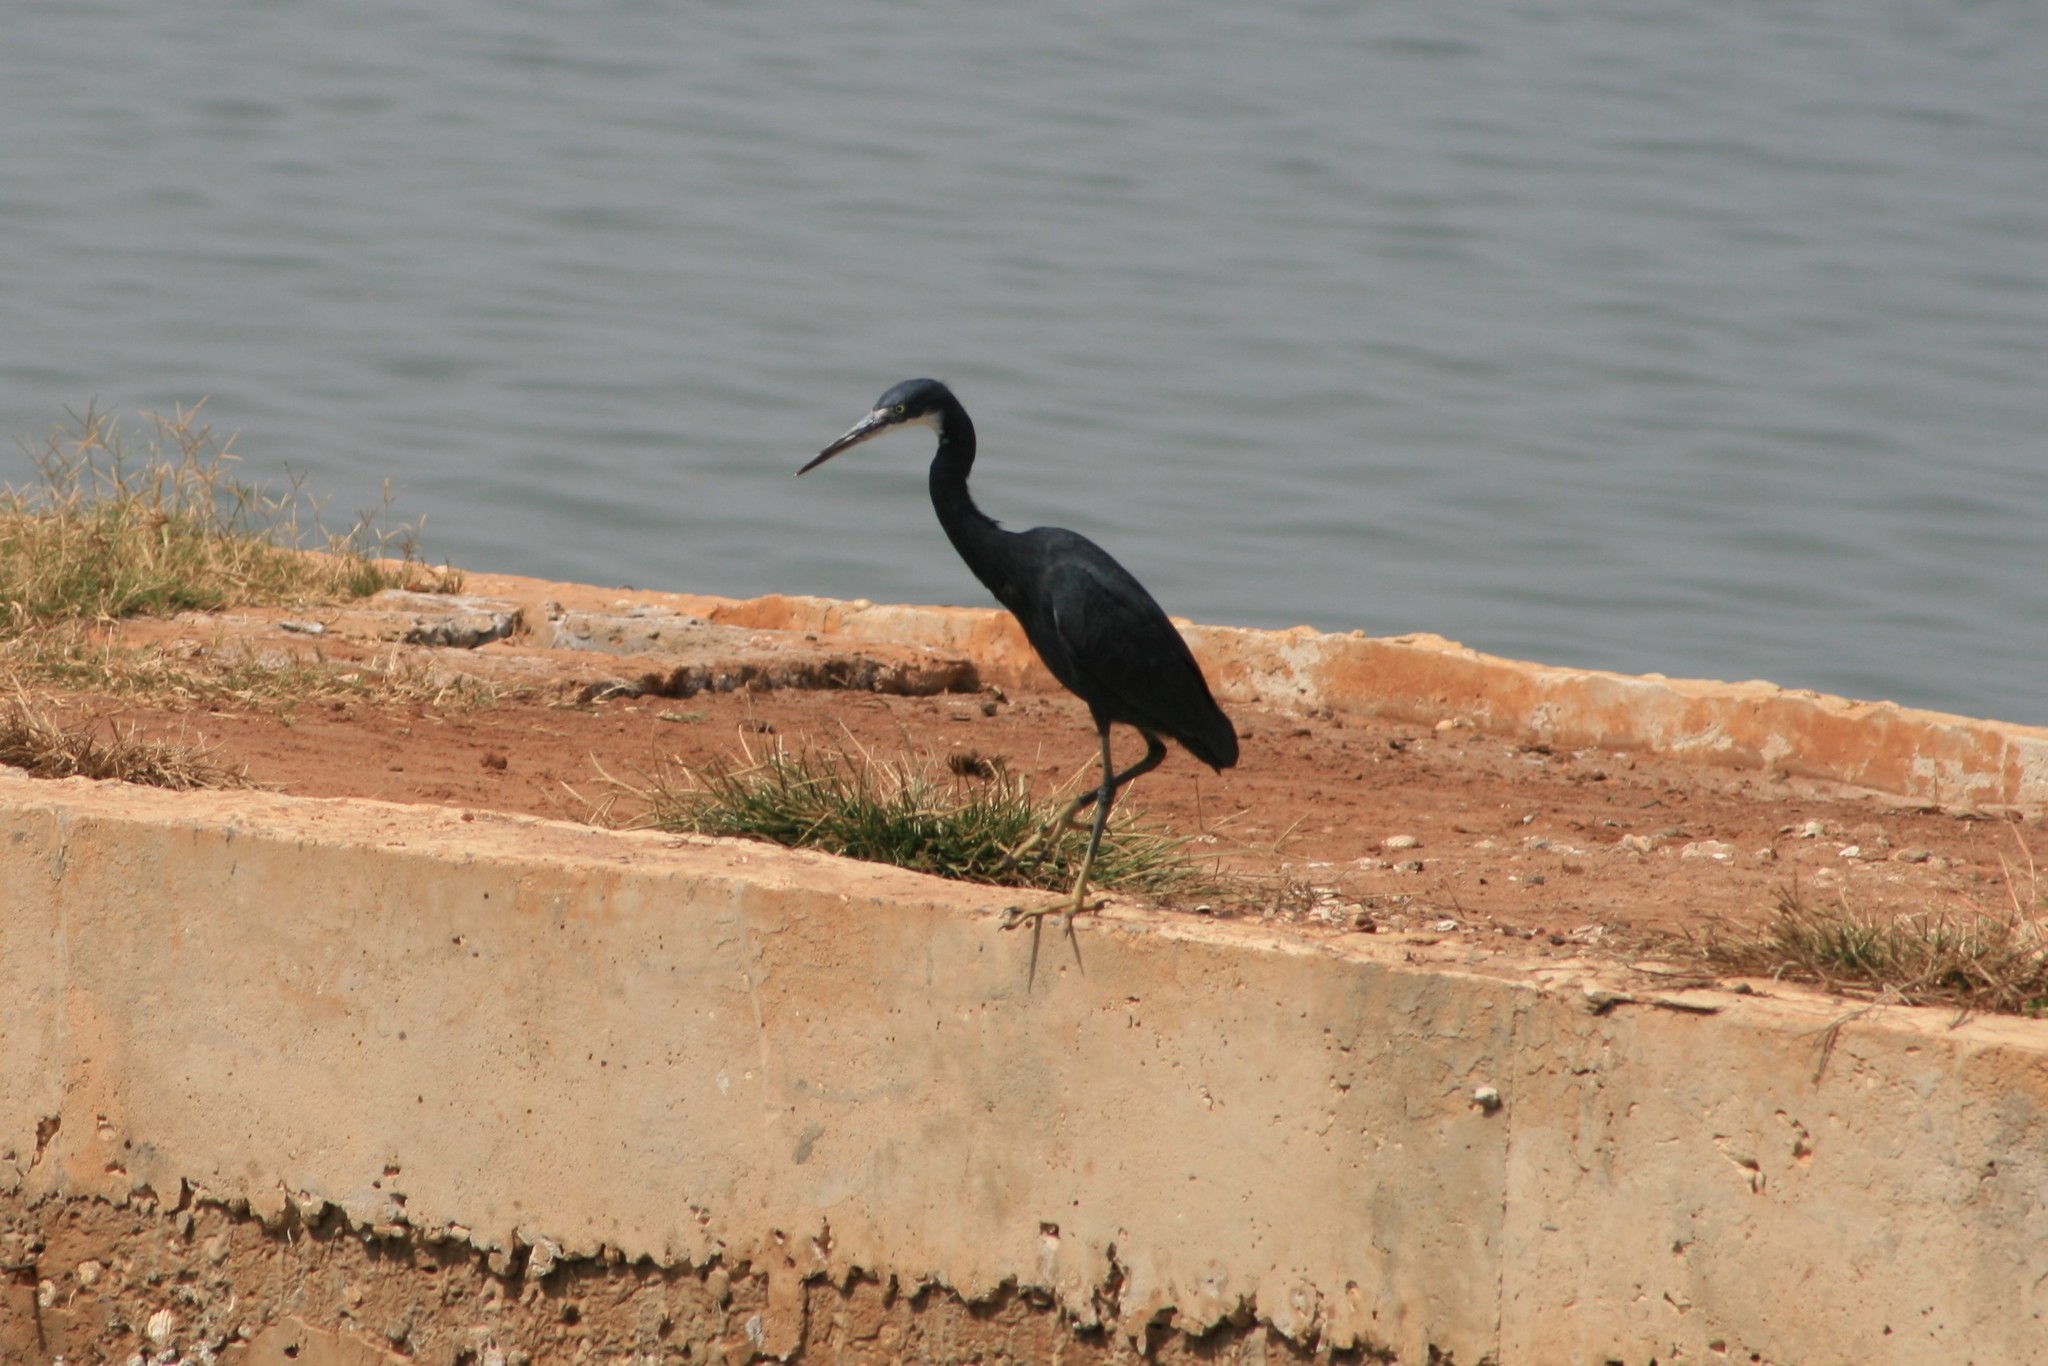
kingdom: Animalia
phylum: Chordata
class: Aves
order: Pelecaniformes
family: Ardeidae
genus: Egretta
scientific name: Egretta gularis
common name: Western reef-heron
